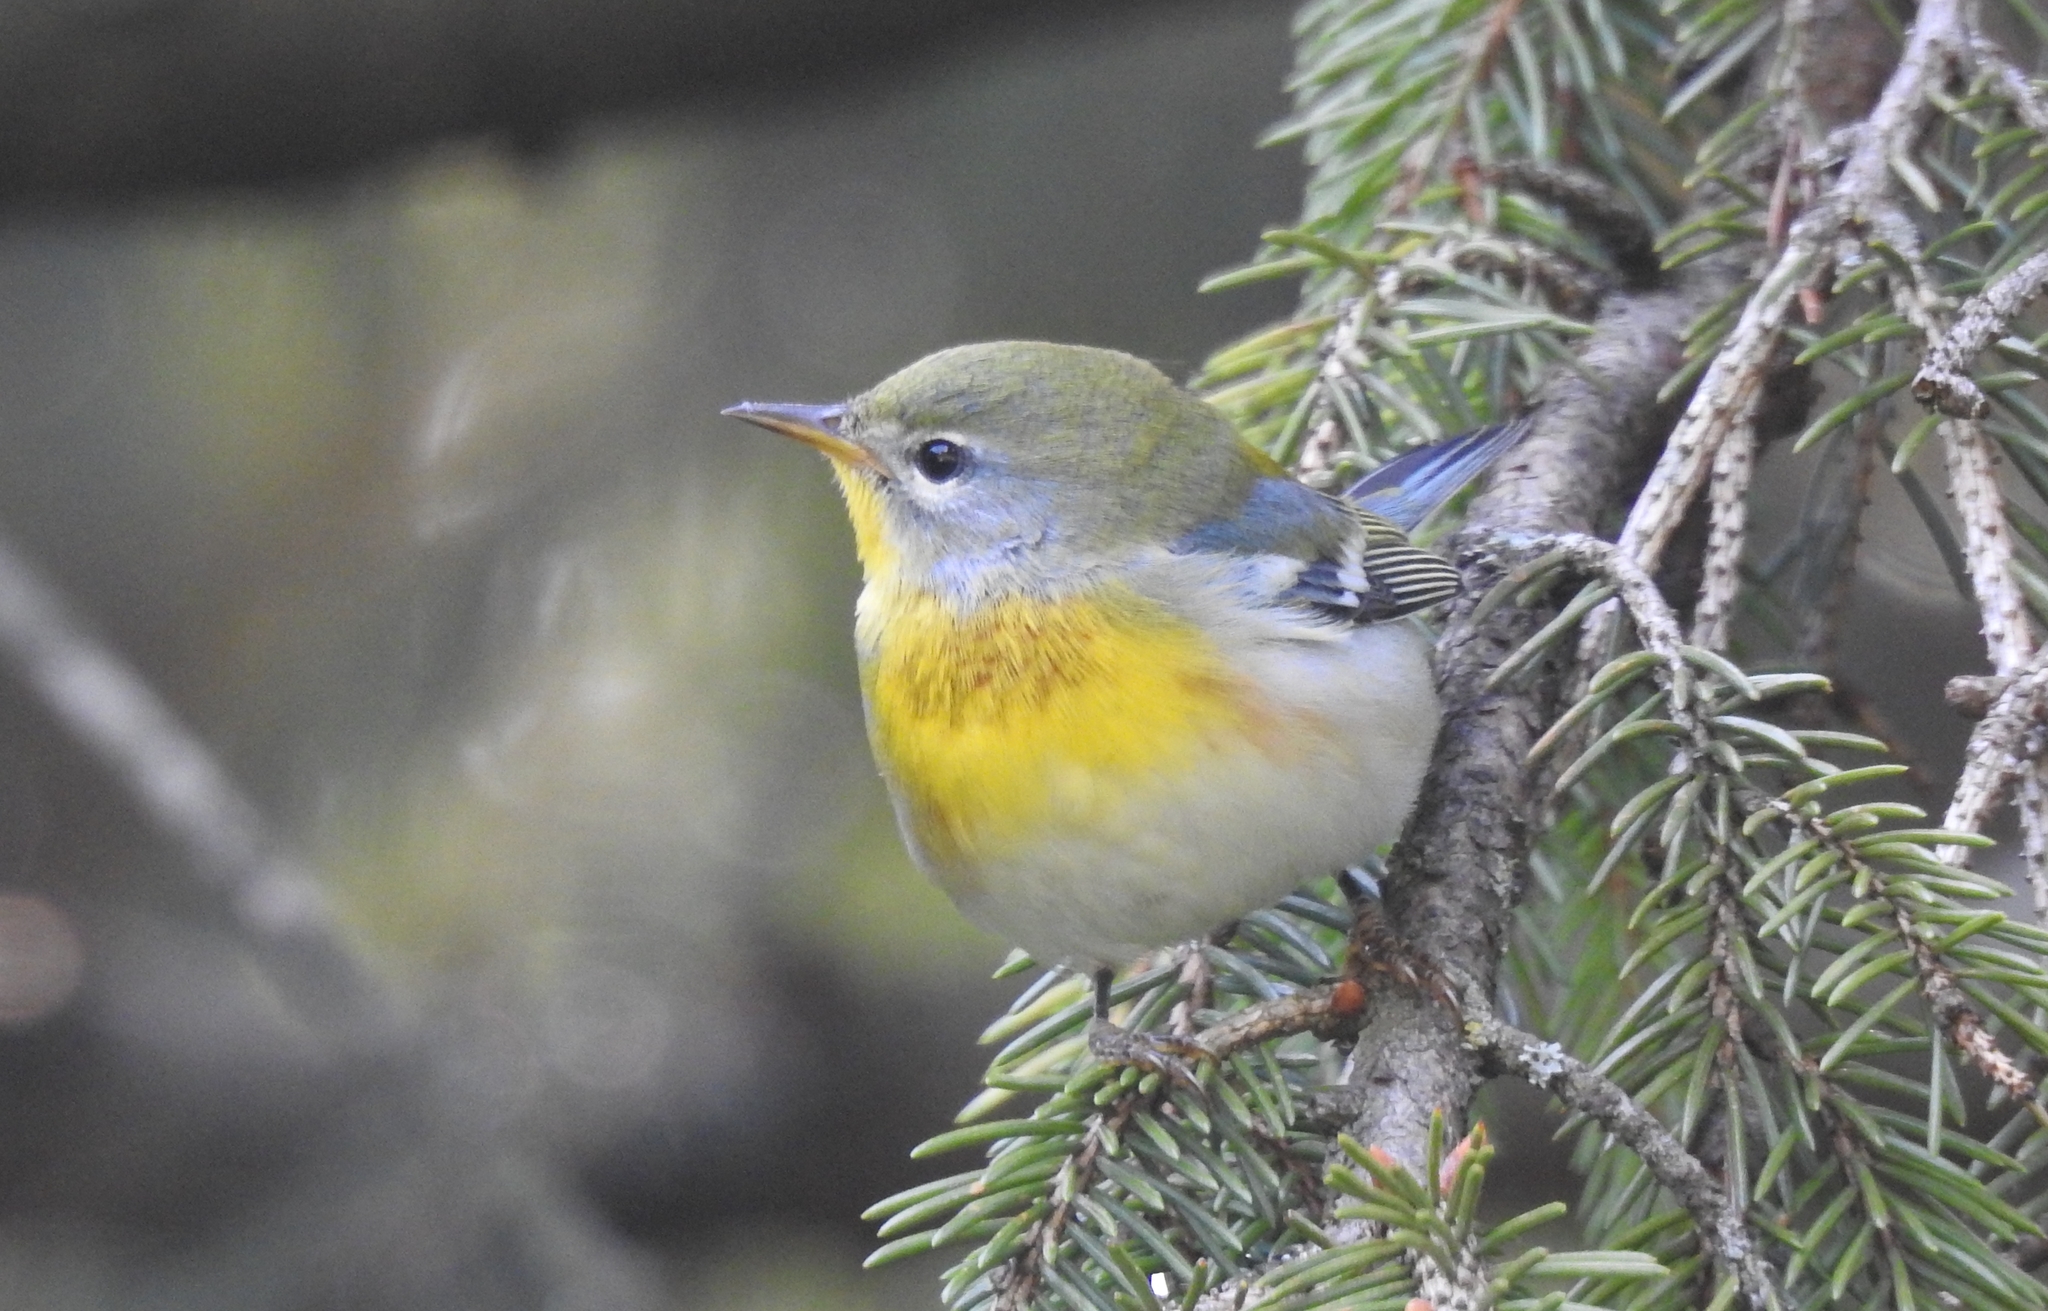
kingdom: Animalia
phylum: Chordata
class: Aves
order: Passeriformes
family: Parulidae
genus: Setophaga
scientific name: Setophaga americana
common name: Northern parula
